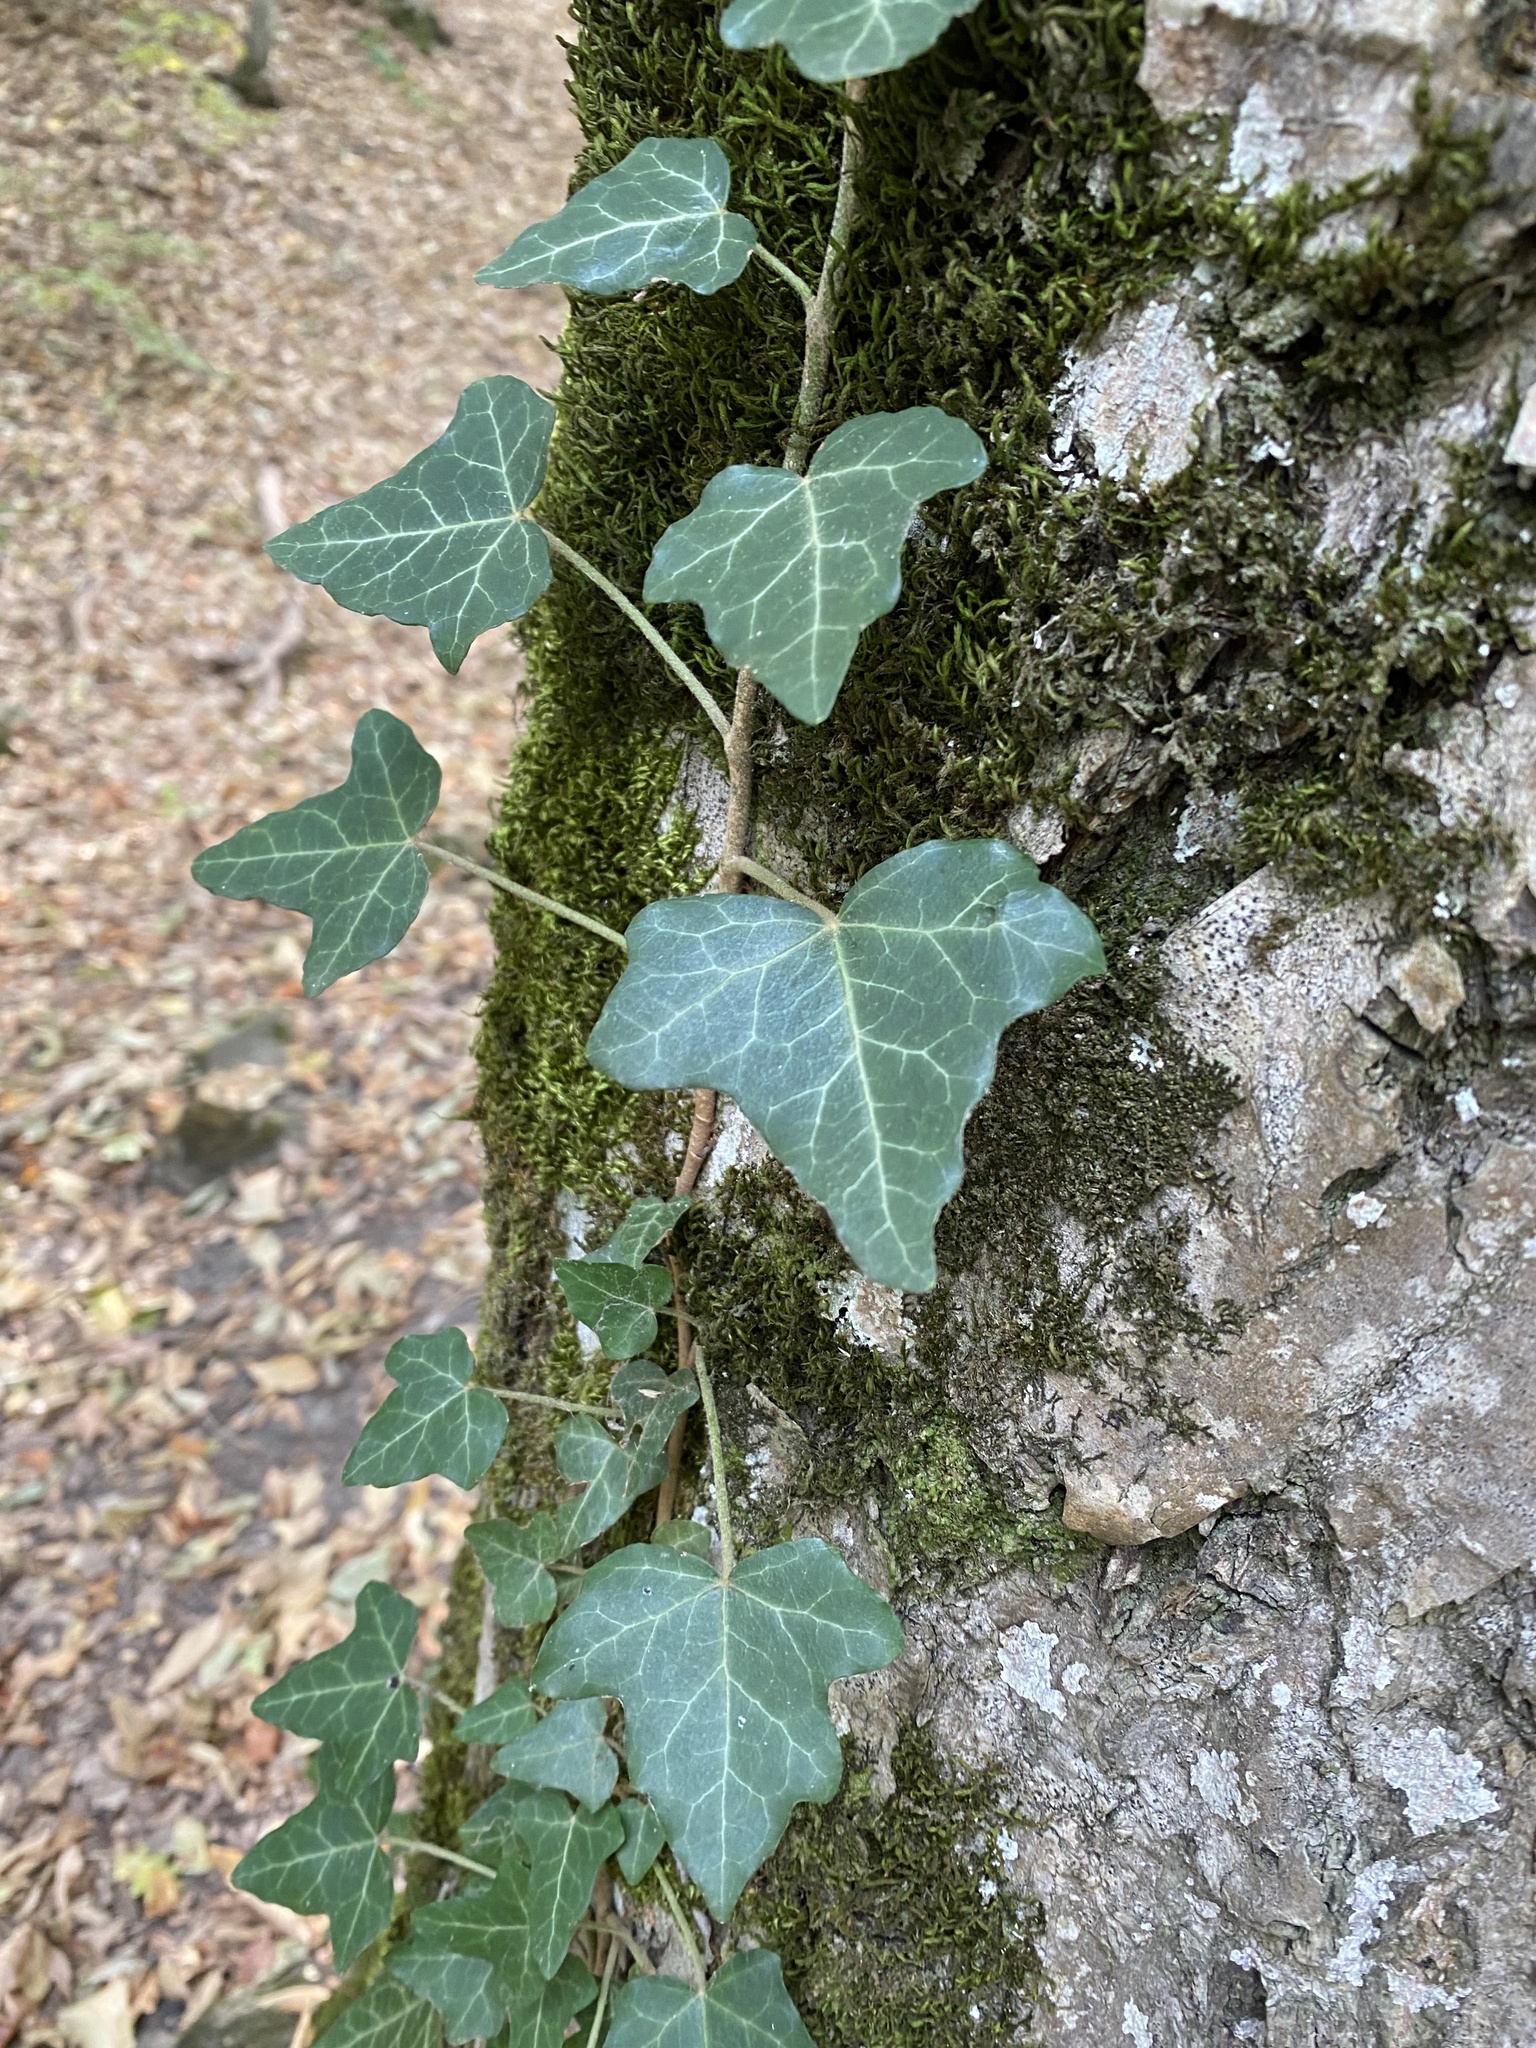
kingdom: Plantae
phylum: Tracheophyta
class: Magnoliopsida
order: Apiales
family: Araliaceae
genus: Hedera
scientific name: Hedera helix
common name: Ivy
